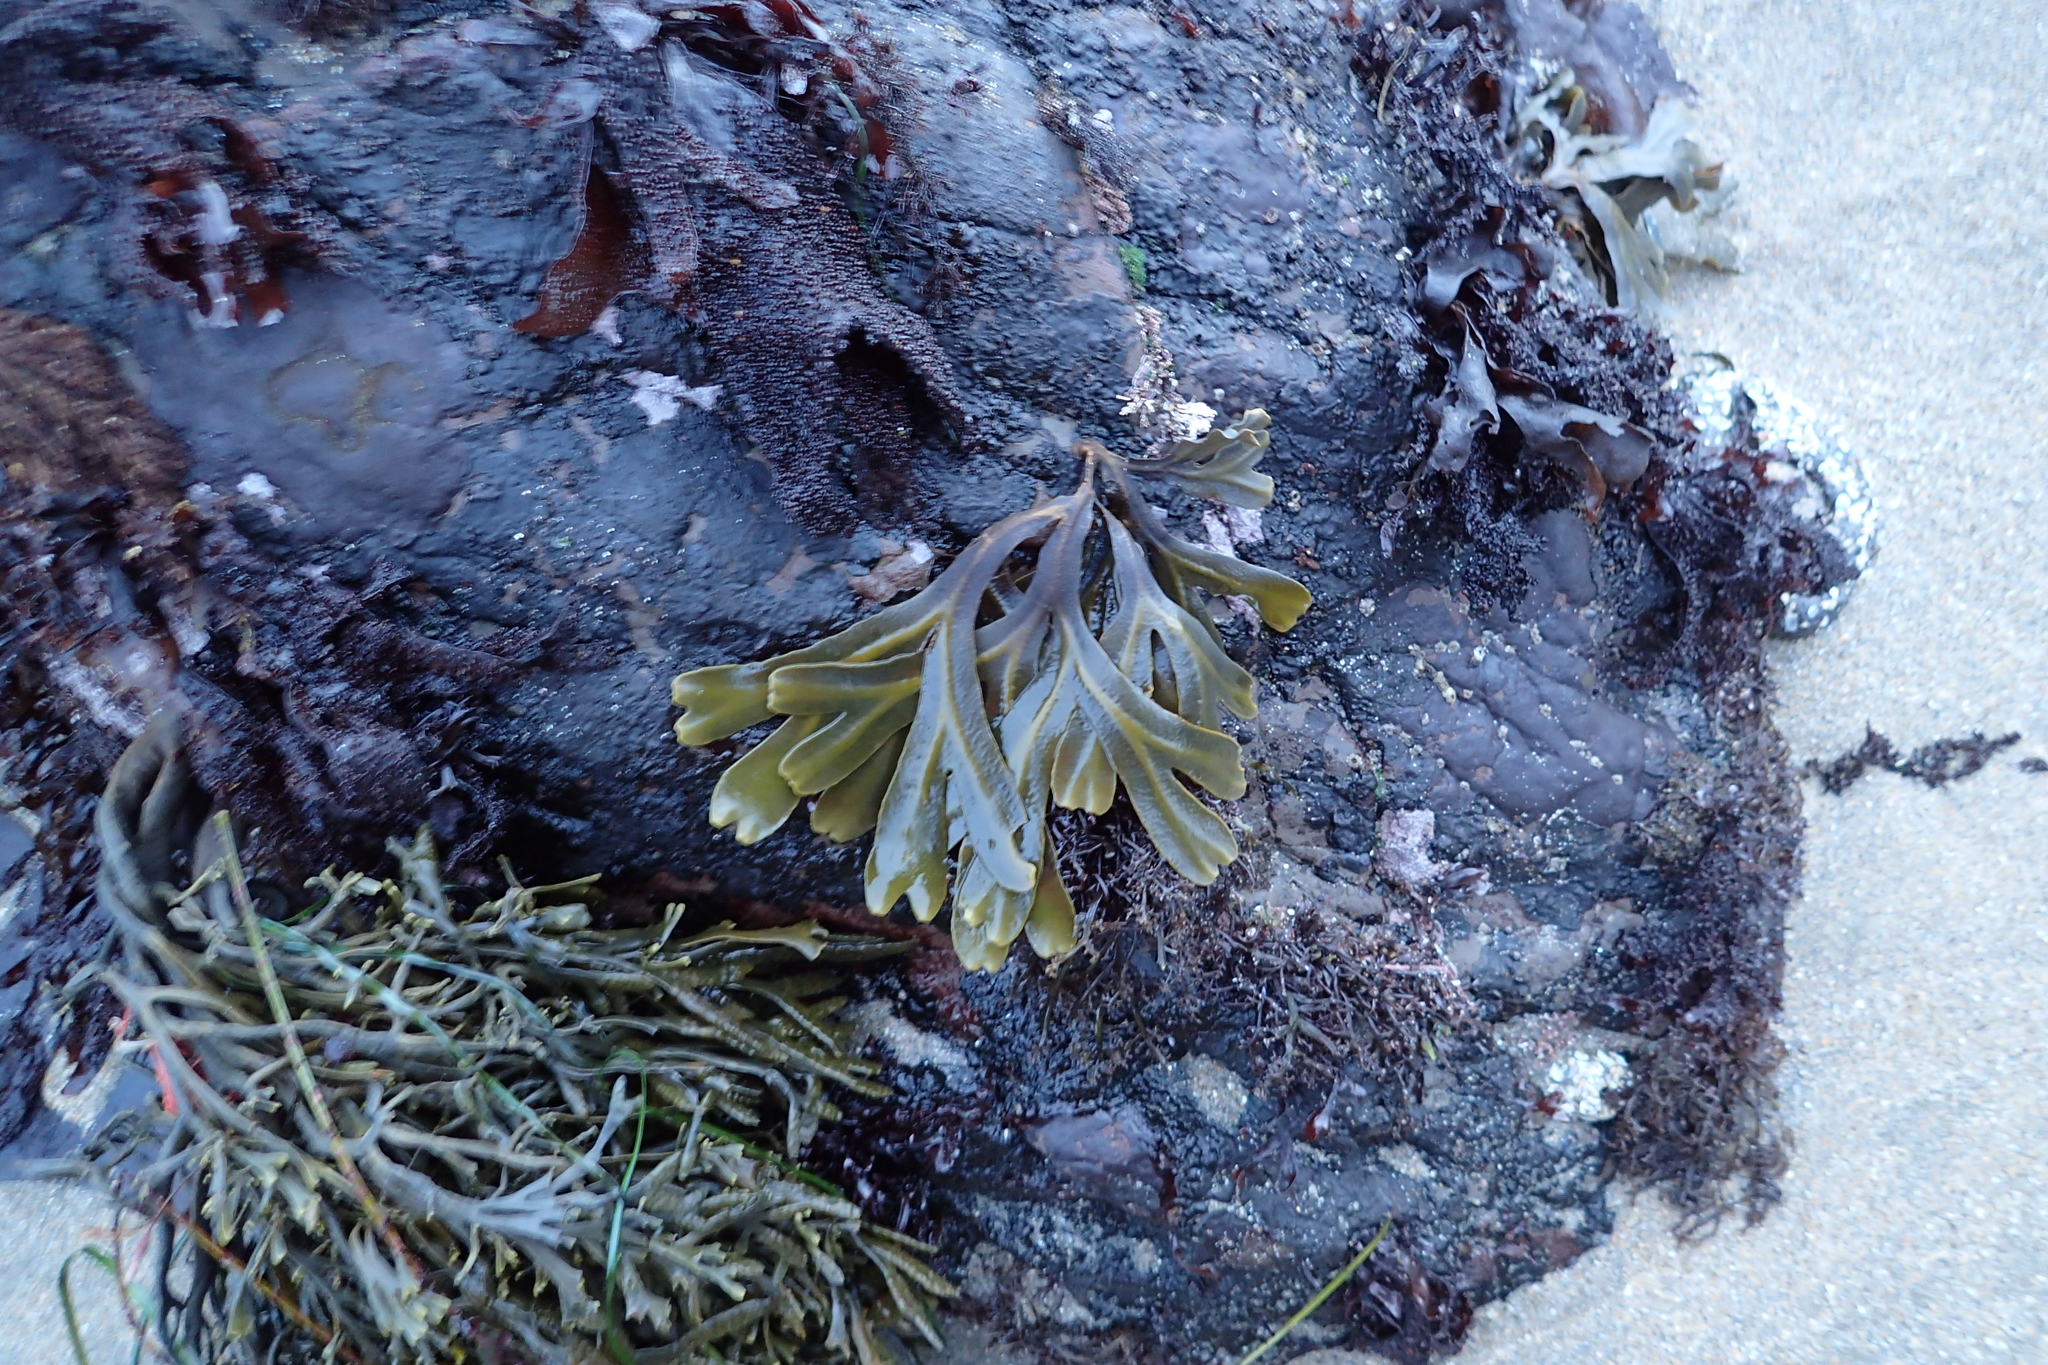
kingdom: Chromista
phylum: Ochrophyta
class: Phaeophyceae
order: Fucales
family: Fucaceae
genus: Fucus
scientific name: Fucus distichus
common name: Rockweed
